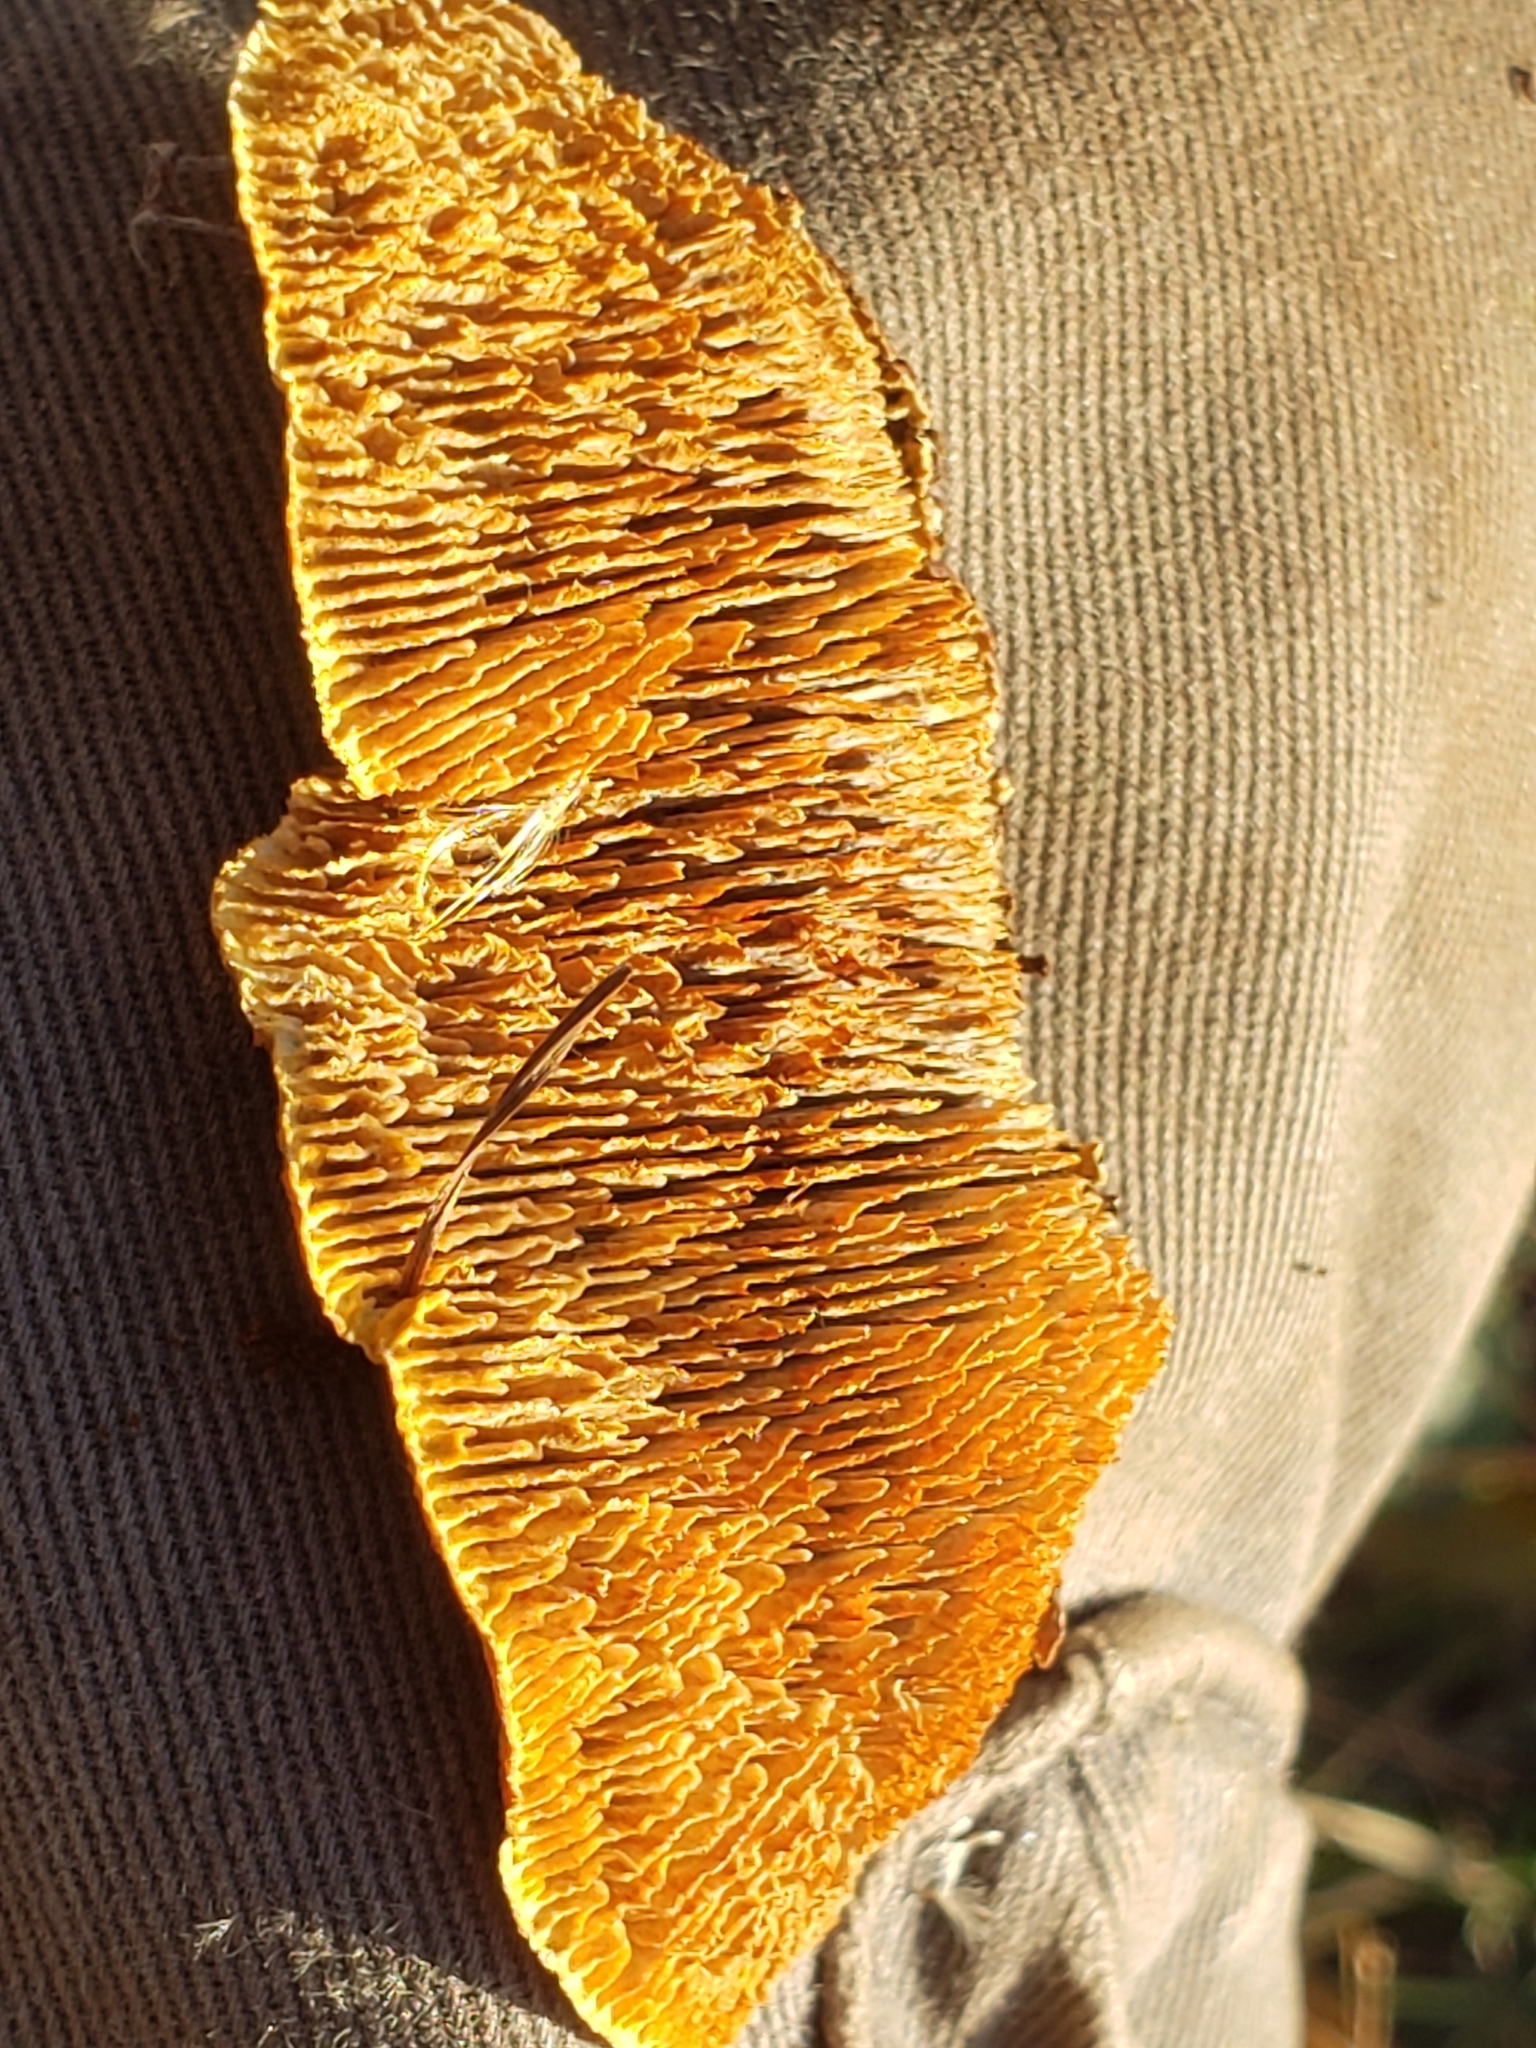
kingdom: Fungi
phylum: Basidiomycota
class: Agaricomycetes
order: Gloeophyllales
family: Gloeophyllaceae
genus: Gloeophyllum
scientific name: Gloeophyllum sepiarium
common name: Conifer mazegill
